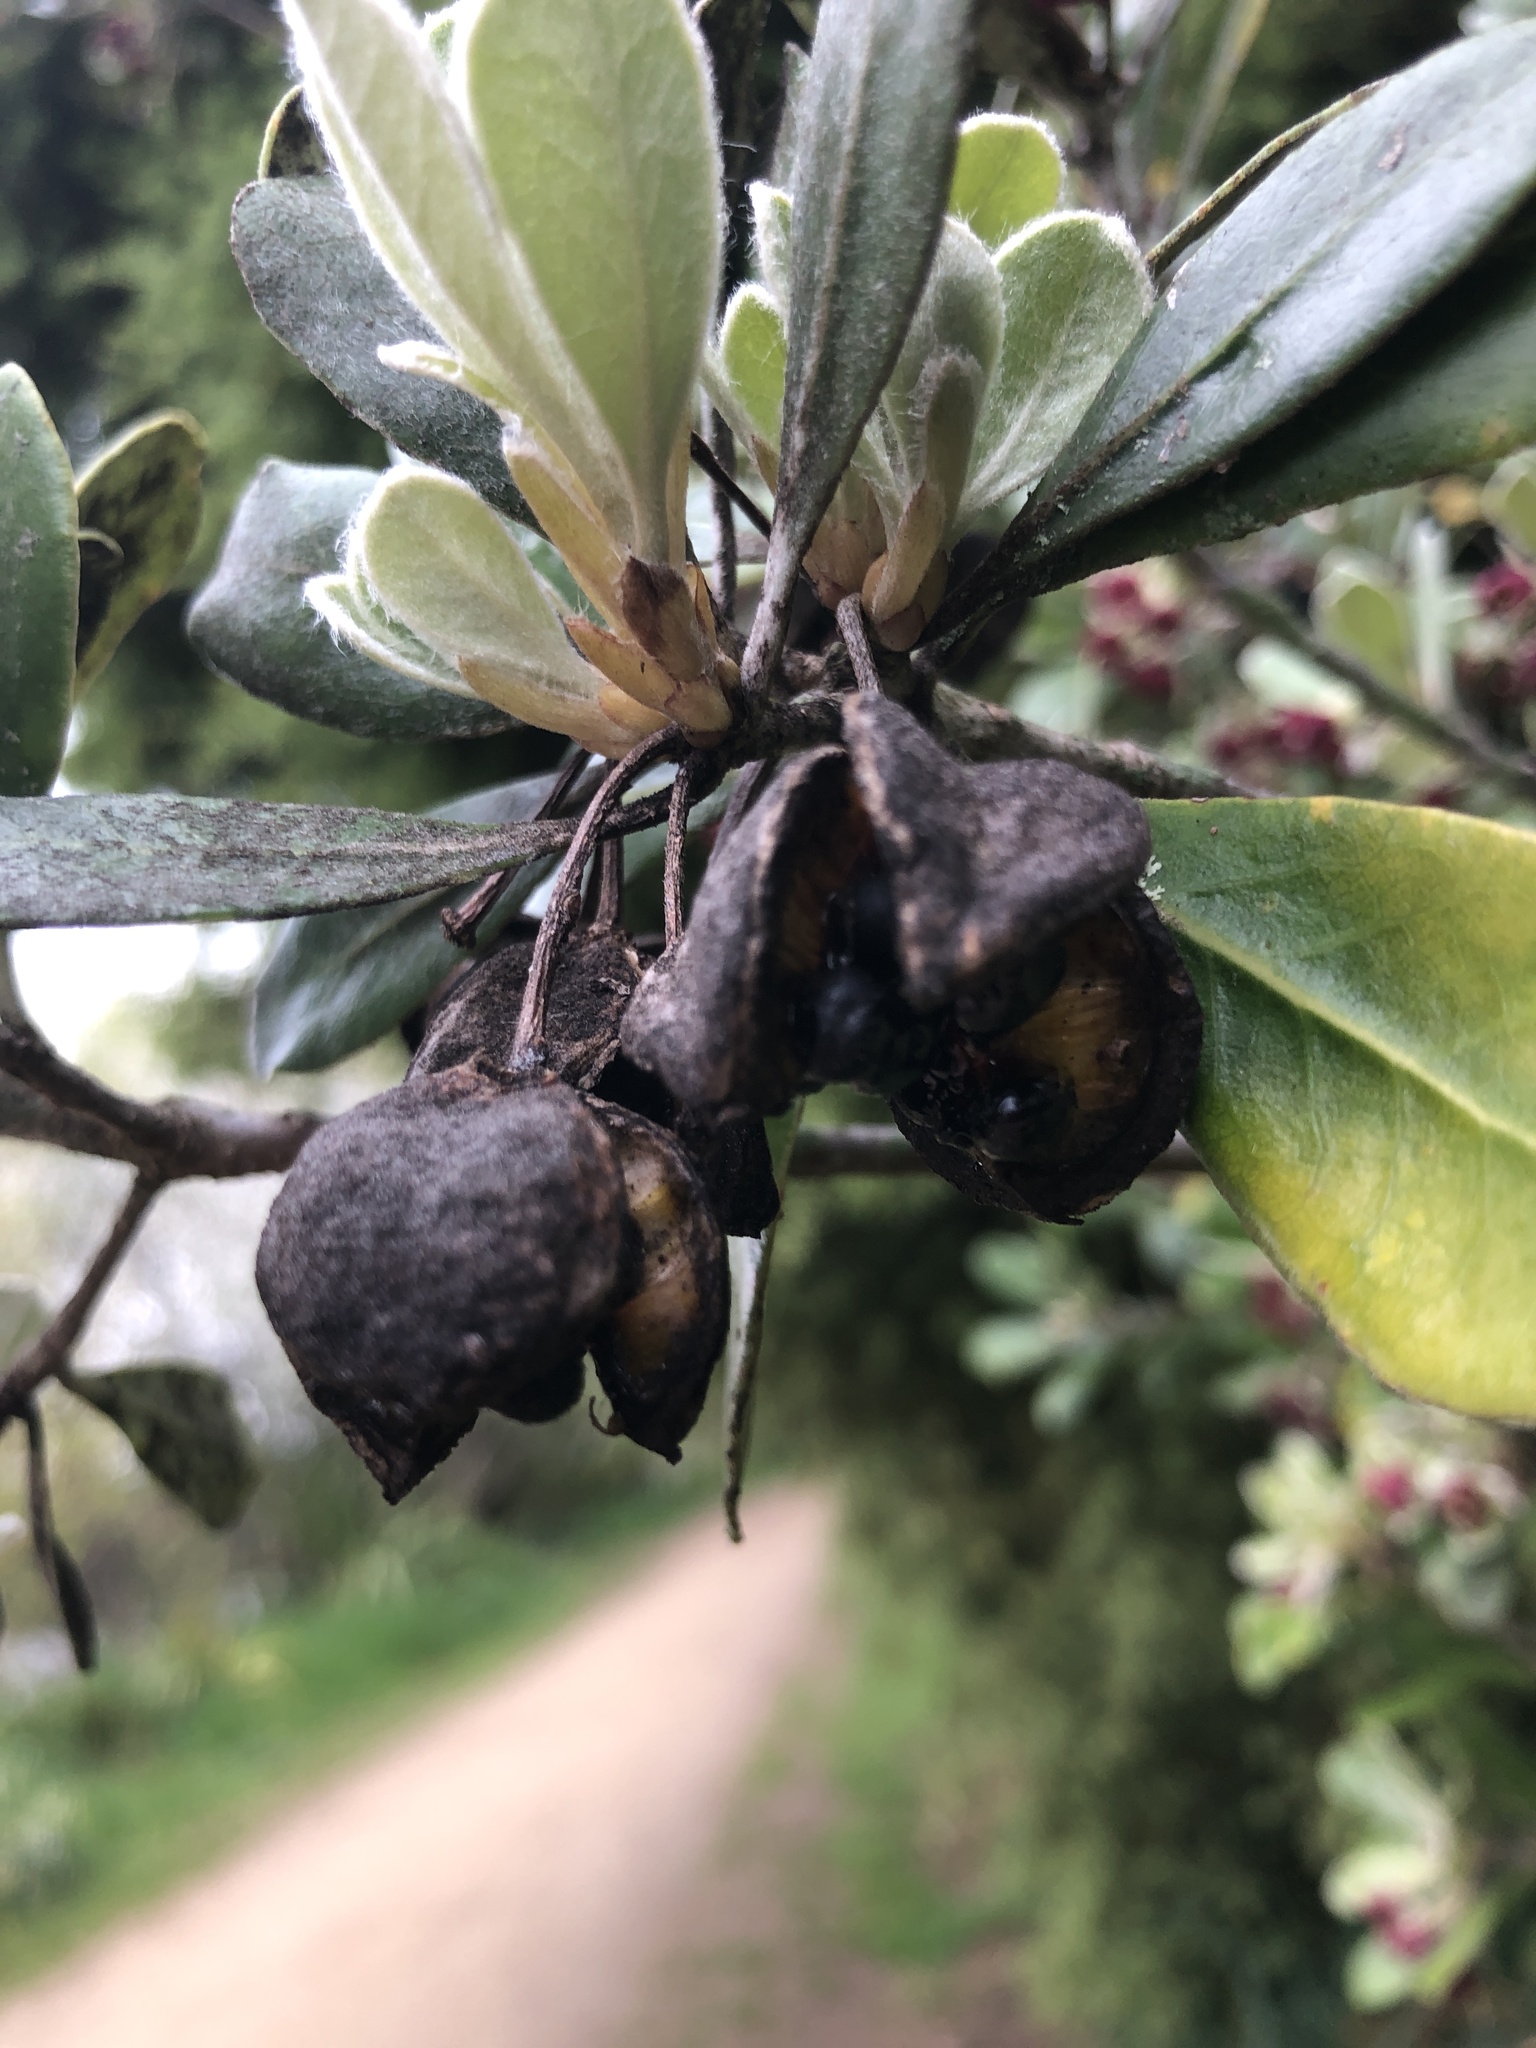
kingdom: Plantae
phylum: Tracheophyta
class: Magnoliopsida
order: Apiales
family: Pittosporaceae
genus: Pittosporum
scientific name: Pittosporum crassifolium
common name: Karo
